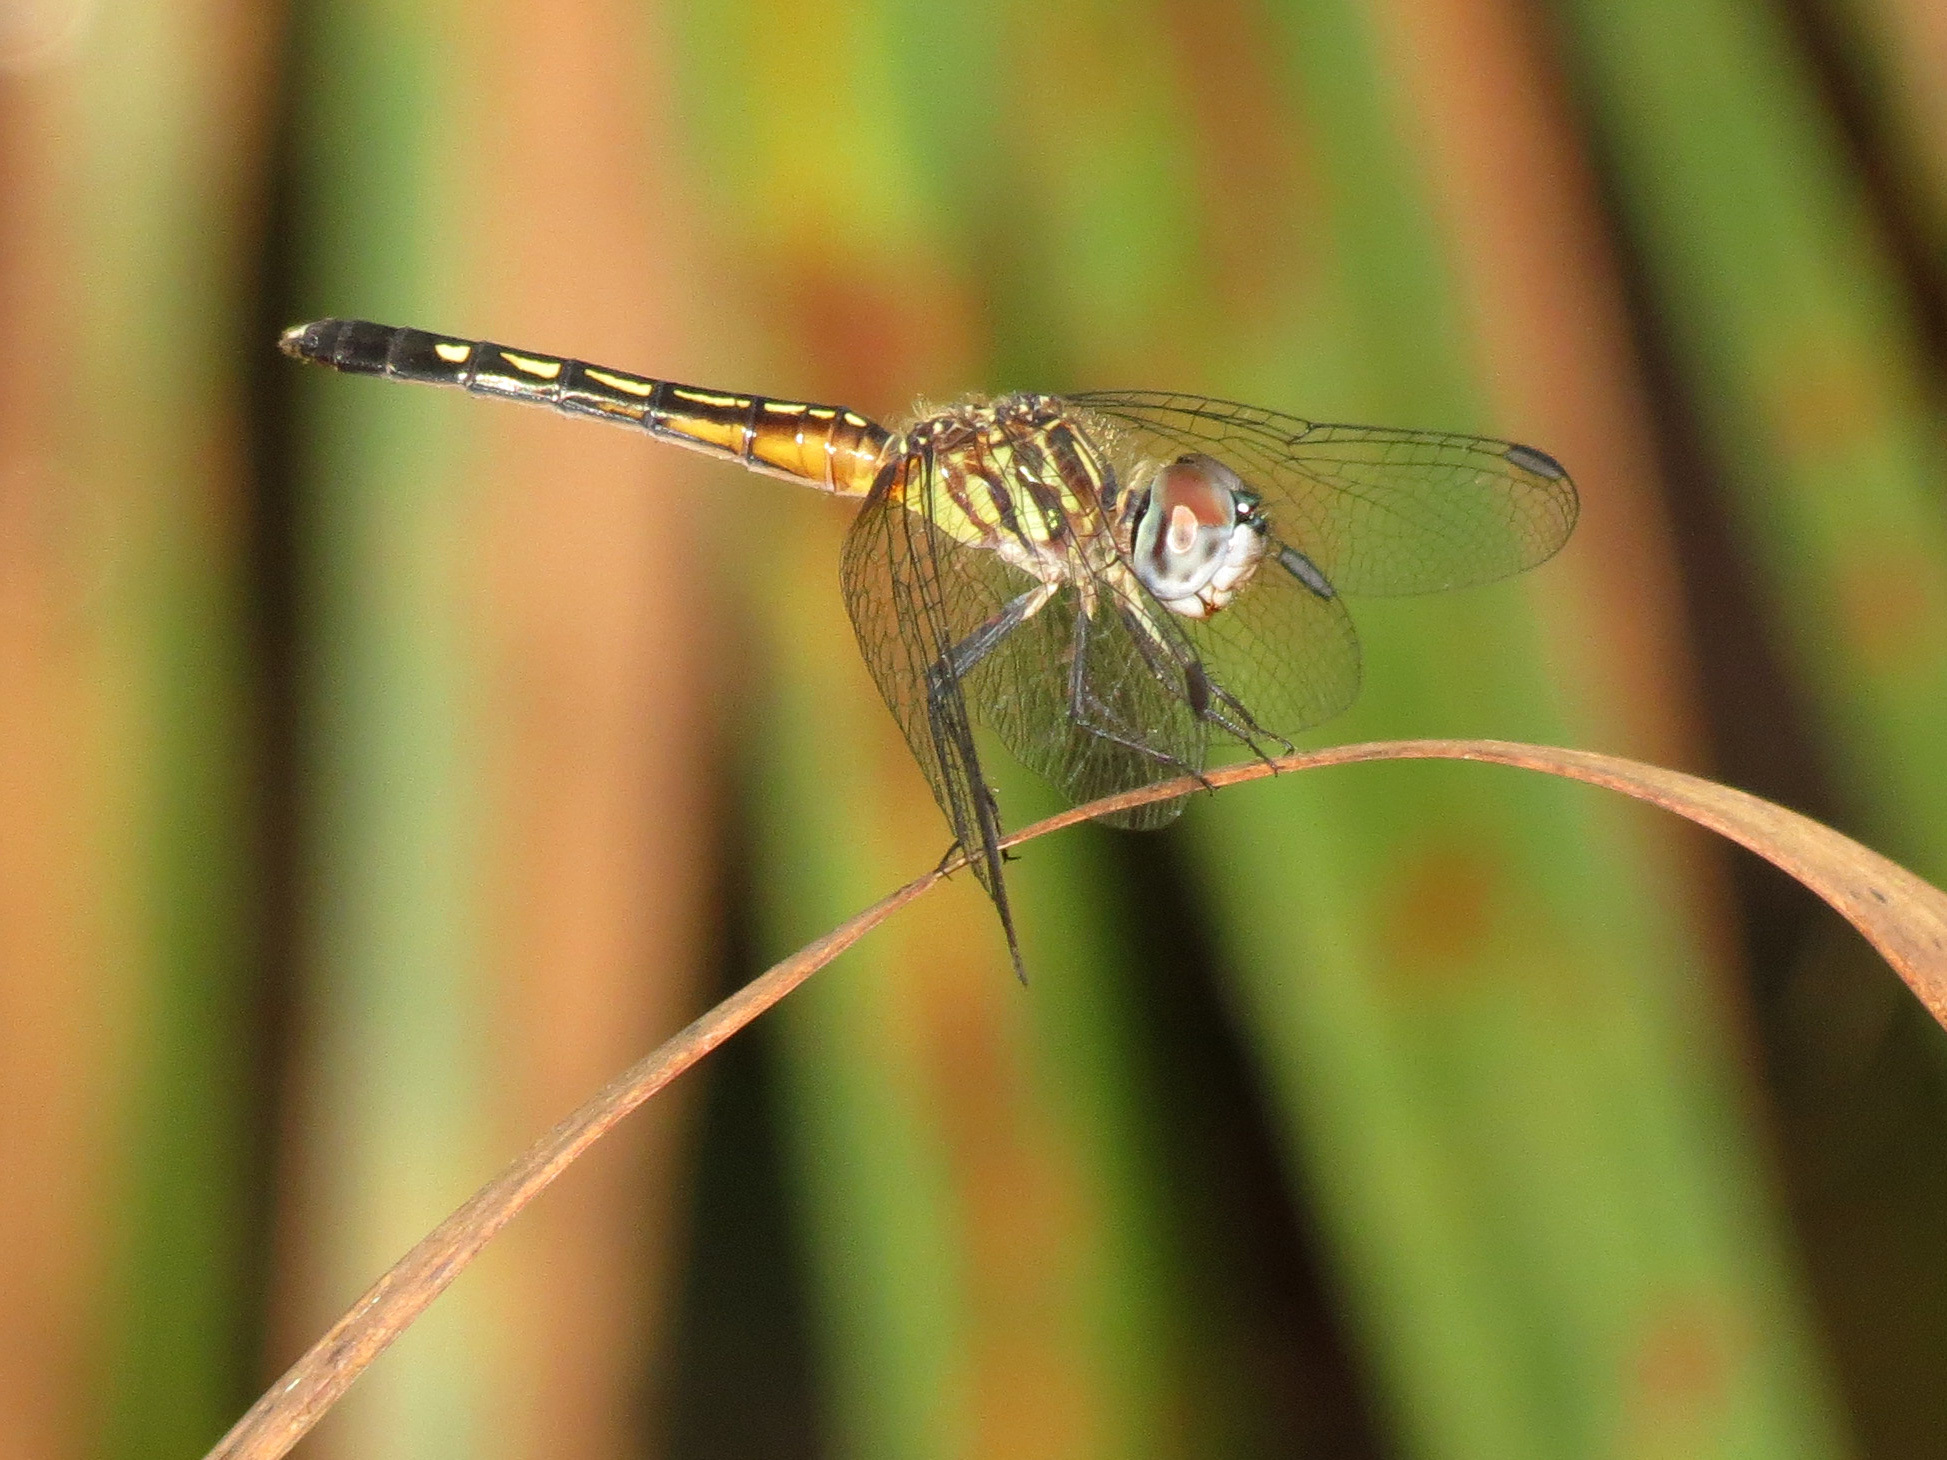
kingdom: Animalia
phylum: Arthropoda
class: Insecta
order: Odonata
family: Libellulidae
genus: Pachydiplax
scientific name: Pachydiplax longipennis
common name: Blue dasher
